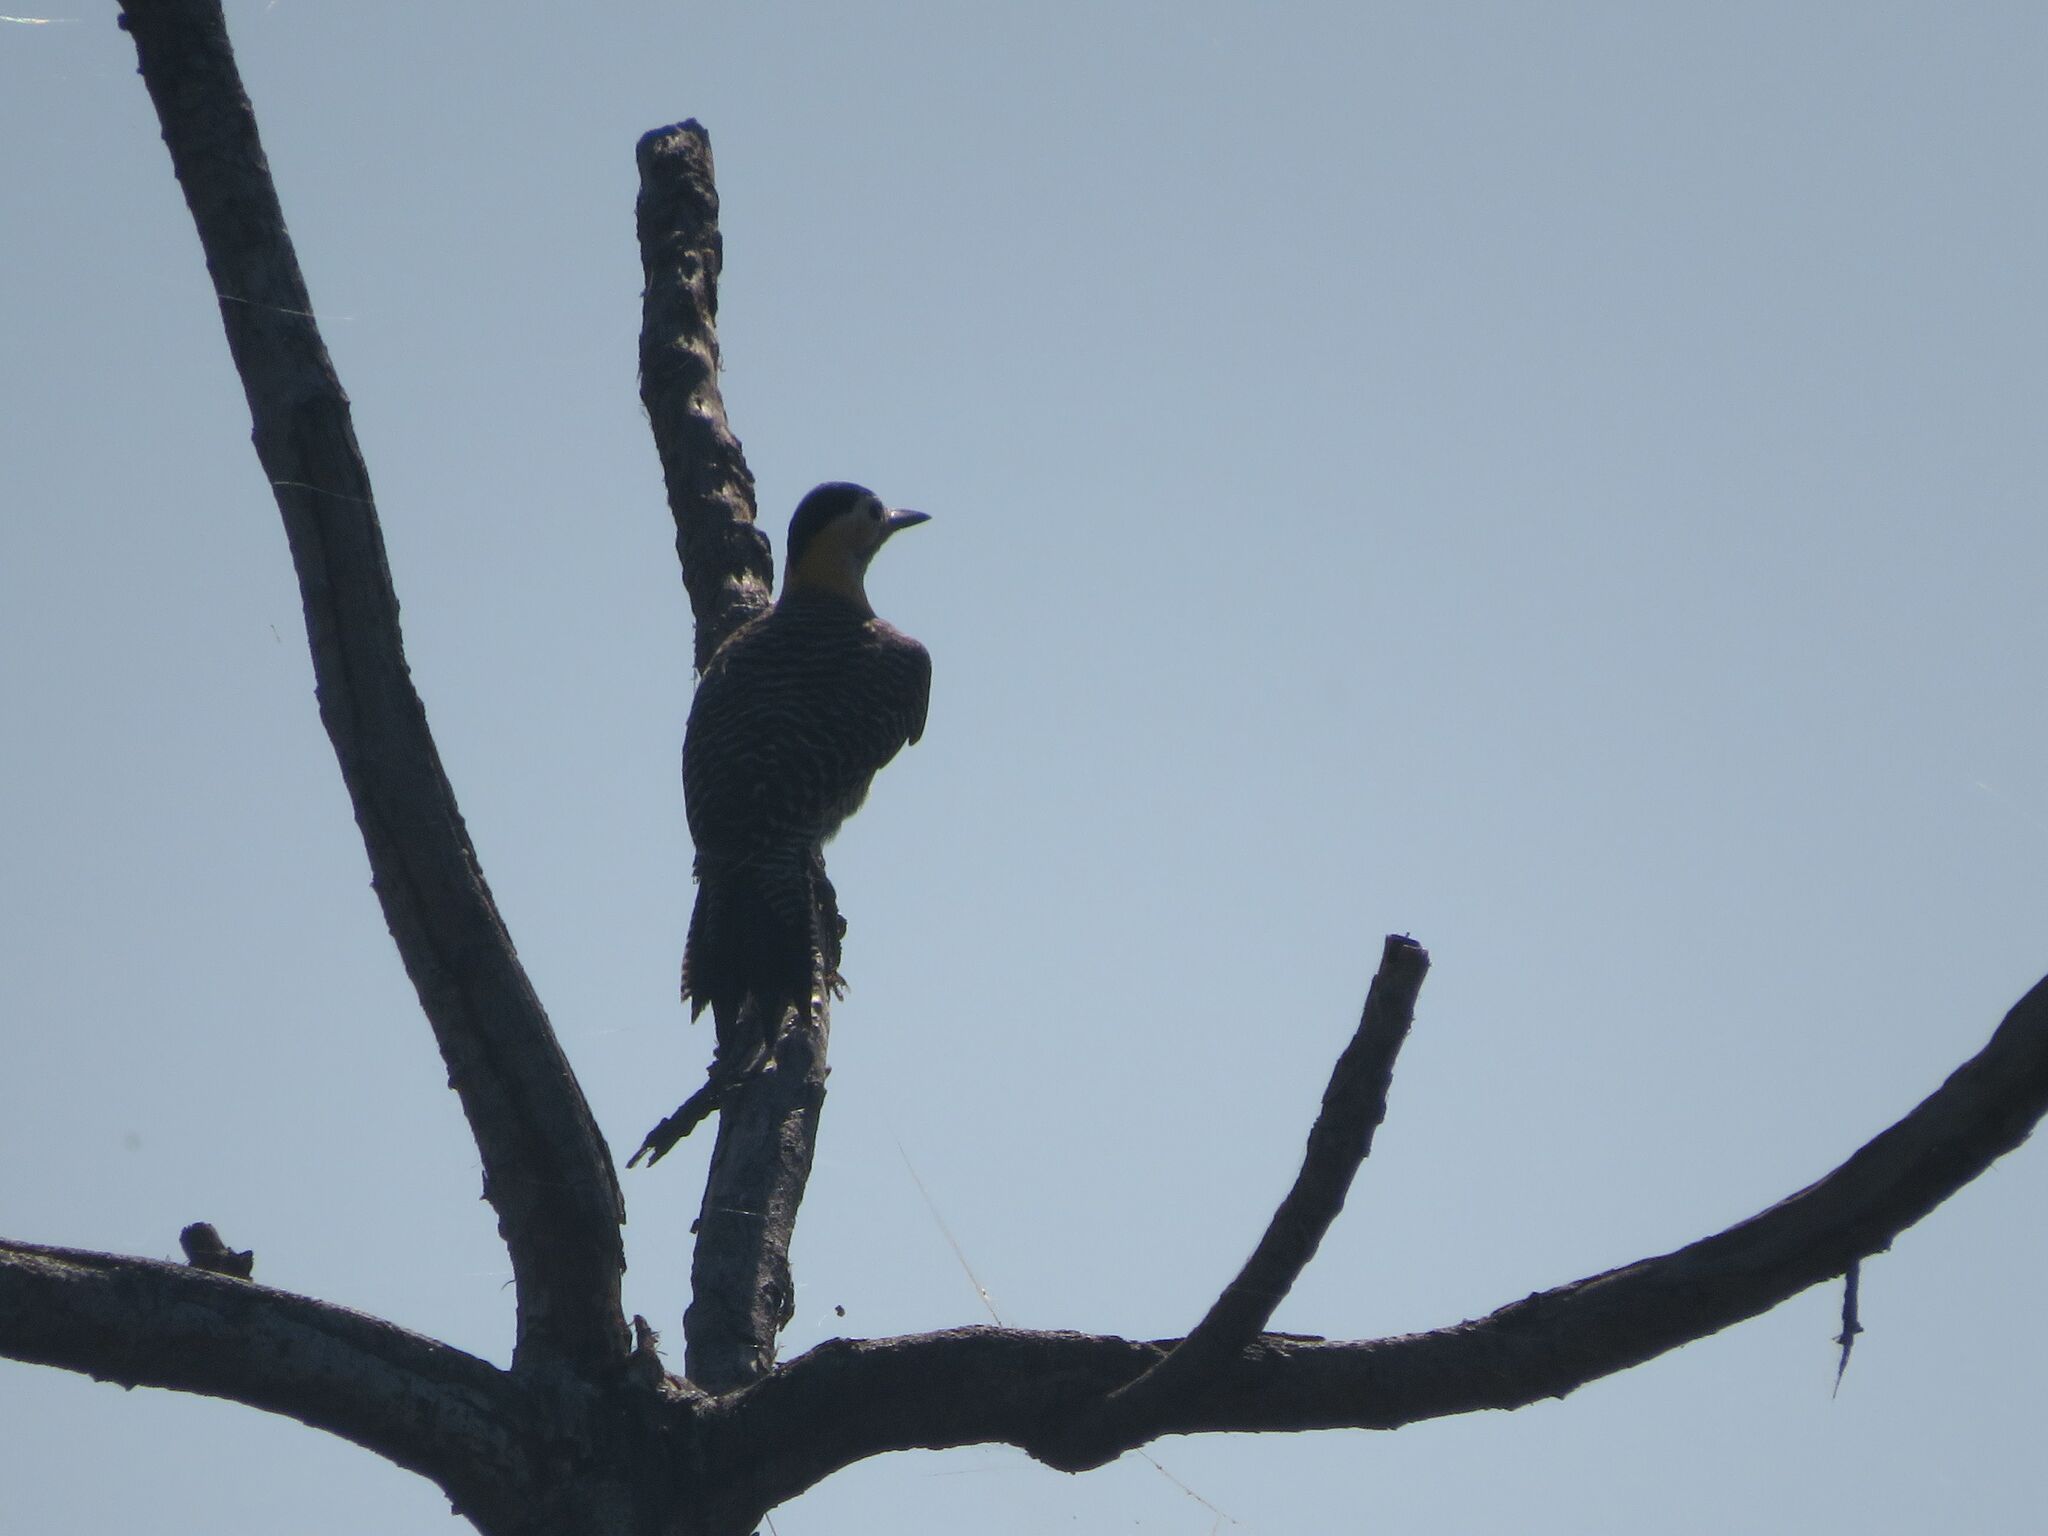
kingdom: Animalia
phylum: Chordata
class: Aves
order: Piciformes
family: Picidae
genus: Colaptes
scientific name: Colaptes campestris
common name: Campo flicker
